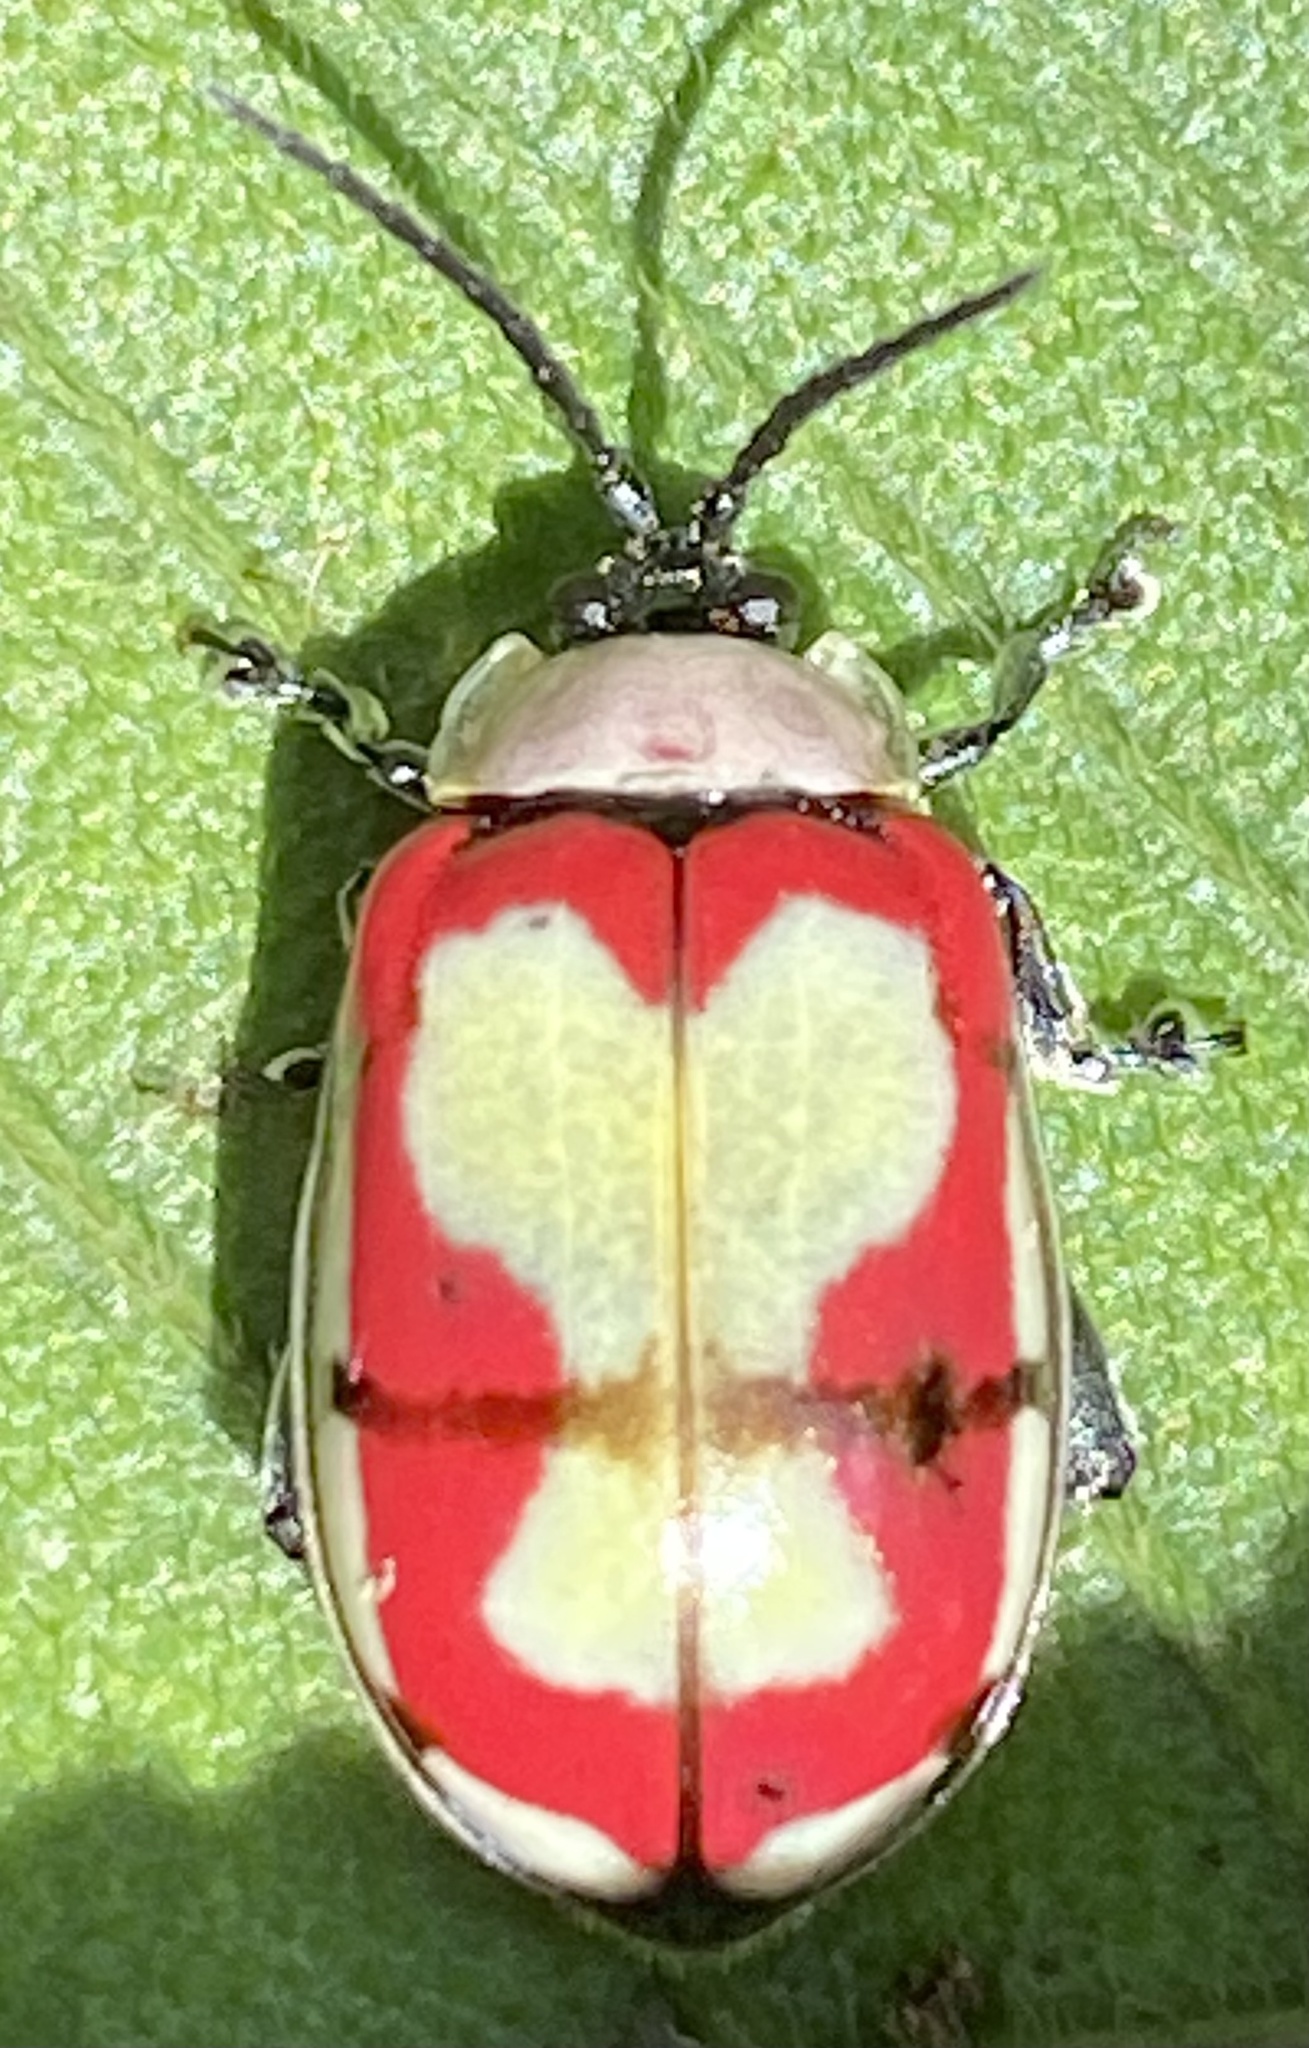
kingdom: Animalia
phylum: Arthropoda
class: Insecta
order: Coleoptera
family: Chrysomelidae
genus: Alagoasa
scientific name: Alagoasa scissa
